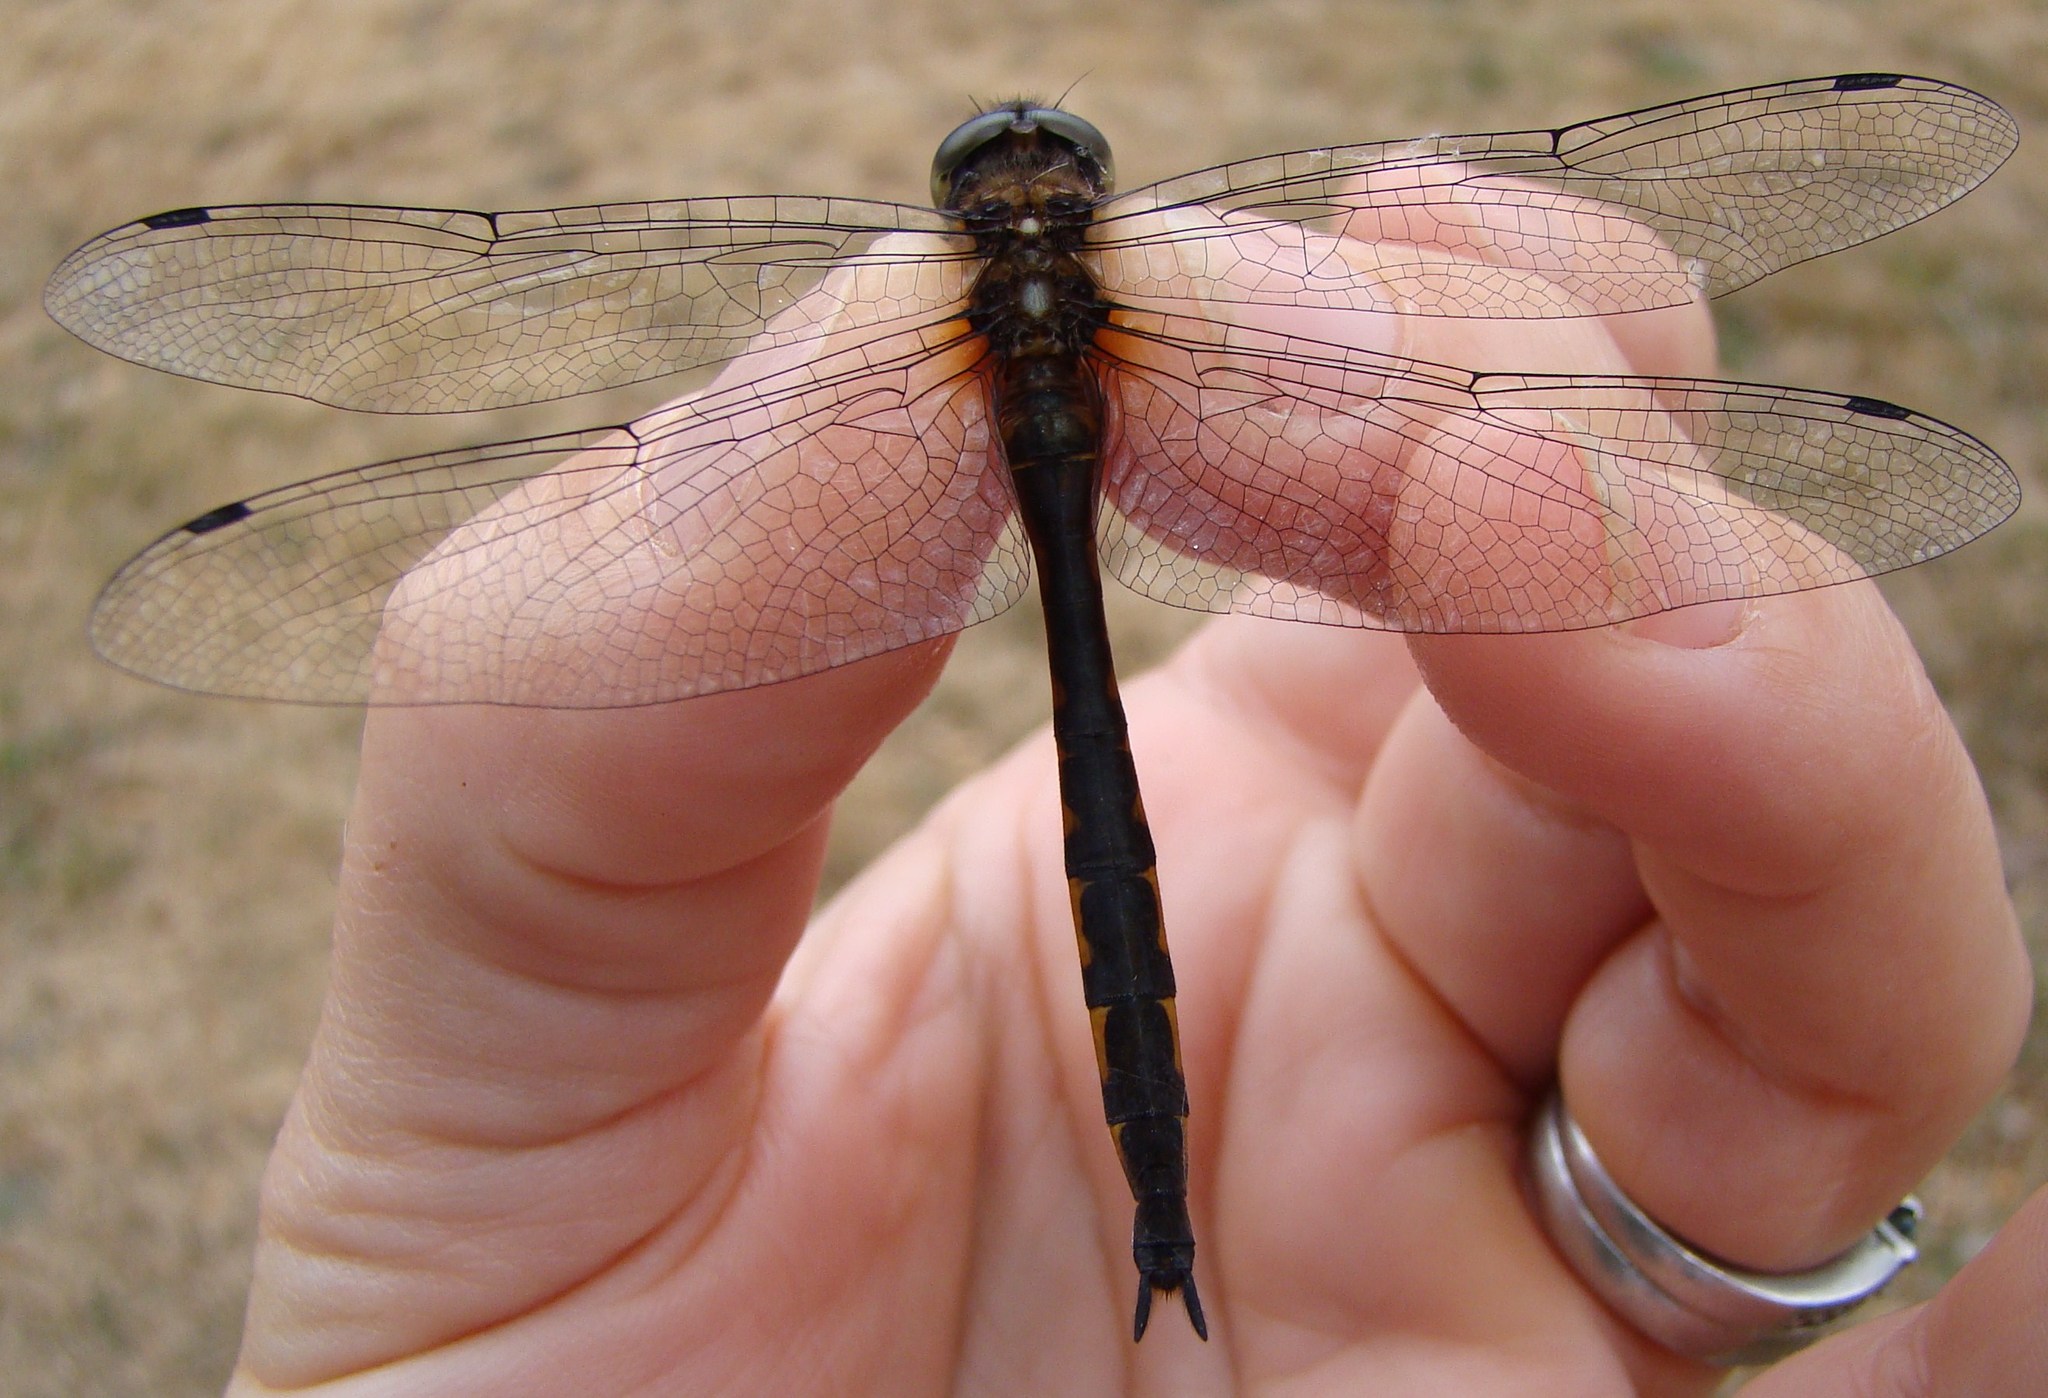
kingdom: Animalia
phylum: Arthropoda
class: Insecta
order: Odonata
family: Corduliidae
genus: Hemicordulia
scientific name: Hemicordulia armstrongi
